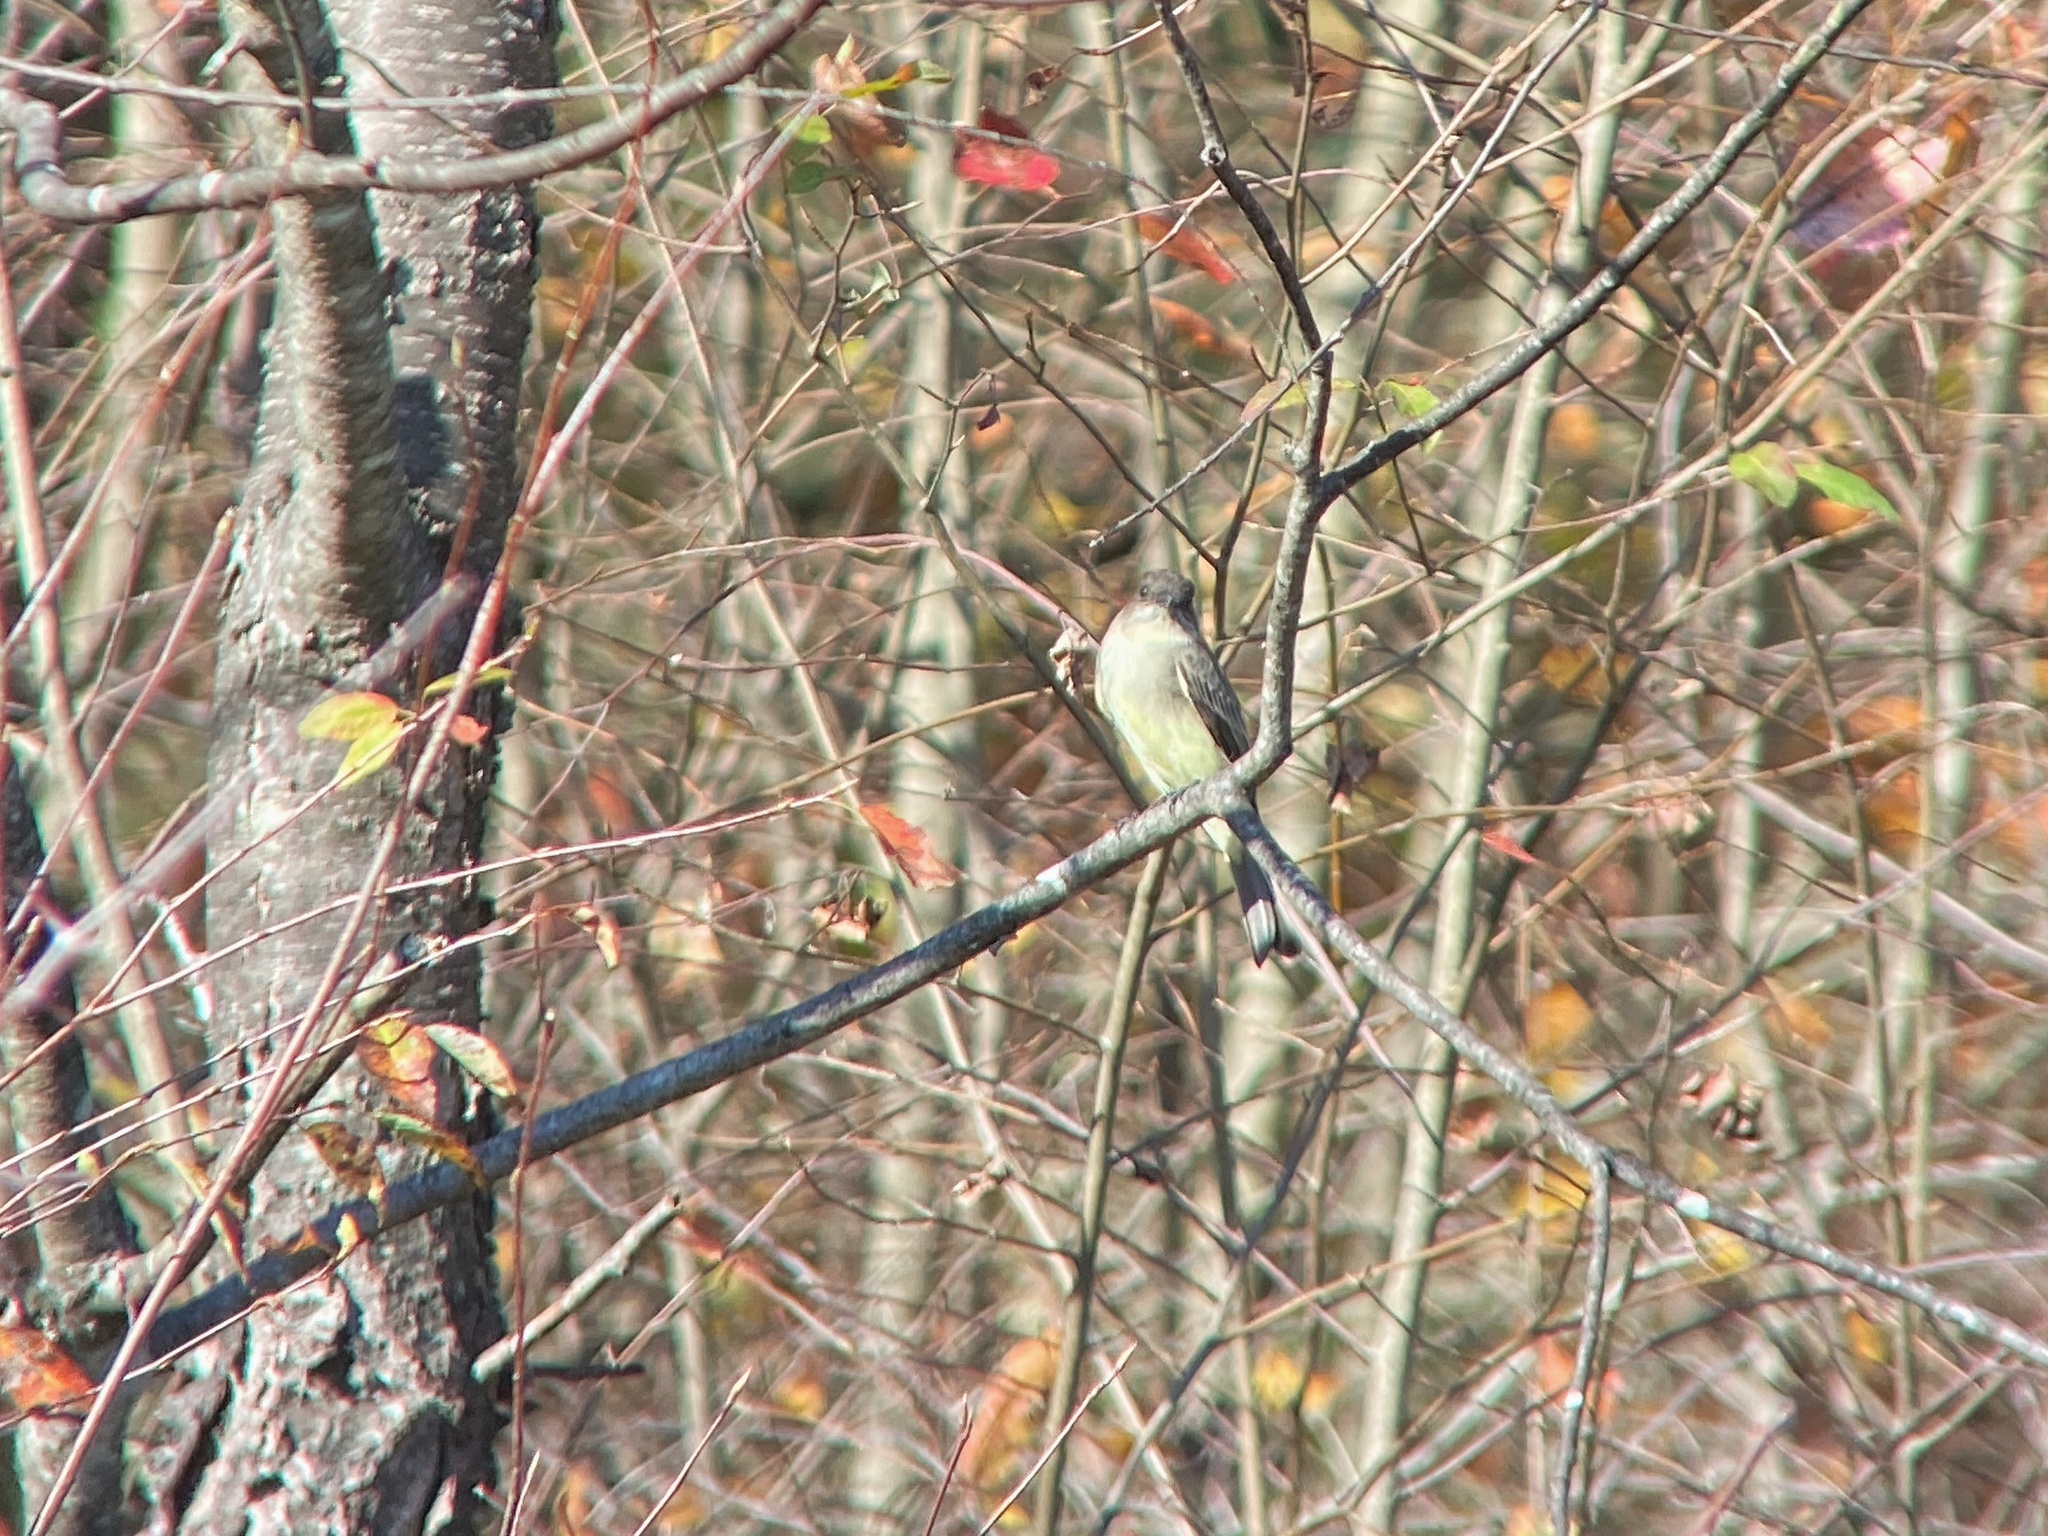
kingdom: Animalia
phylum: Chordata
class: Aves
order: Passeriformes
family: Tyrannidae
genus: Sayornis
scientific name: Sayornis phoebe
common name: Eastern phoebe
